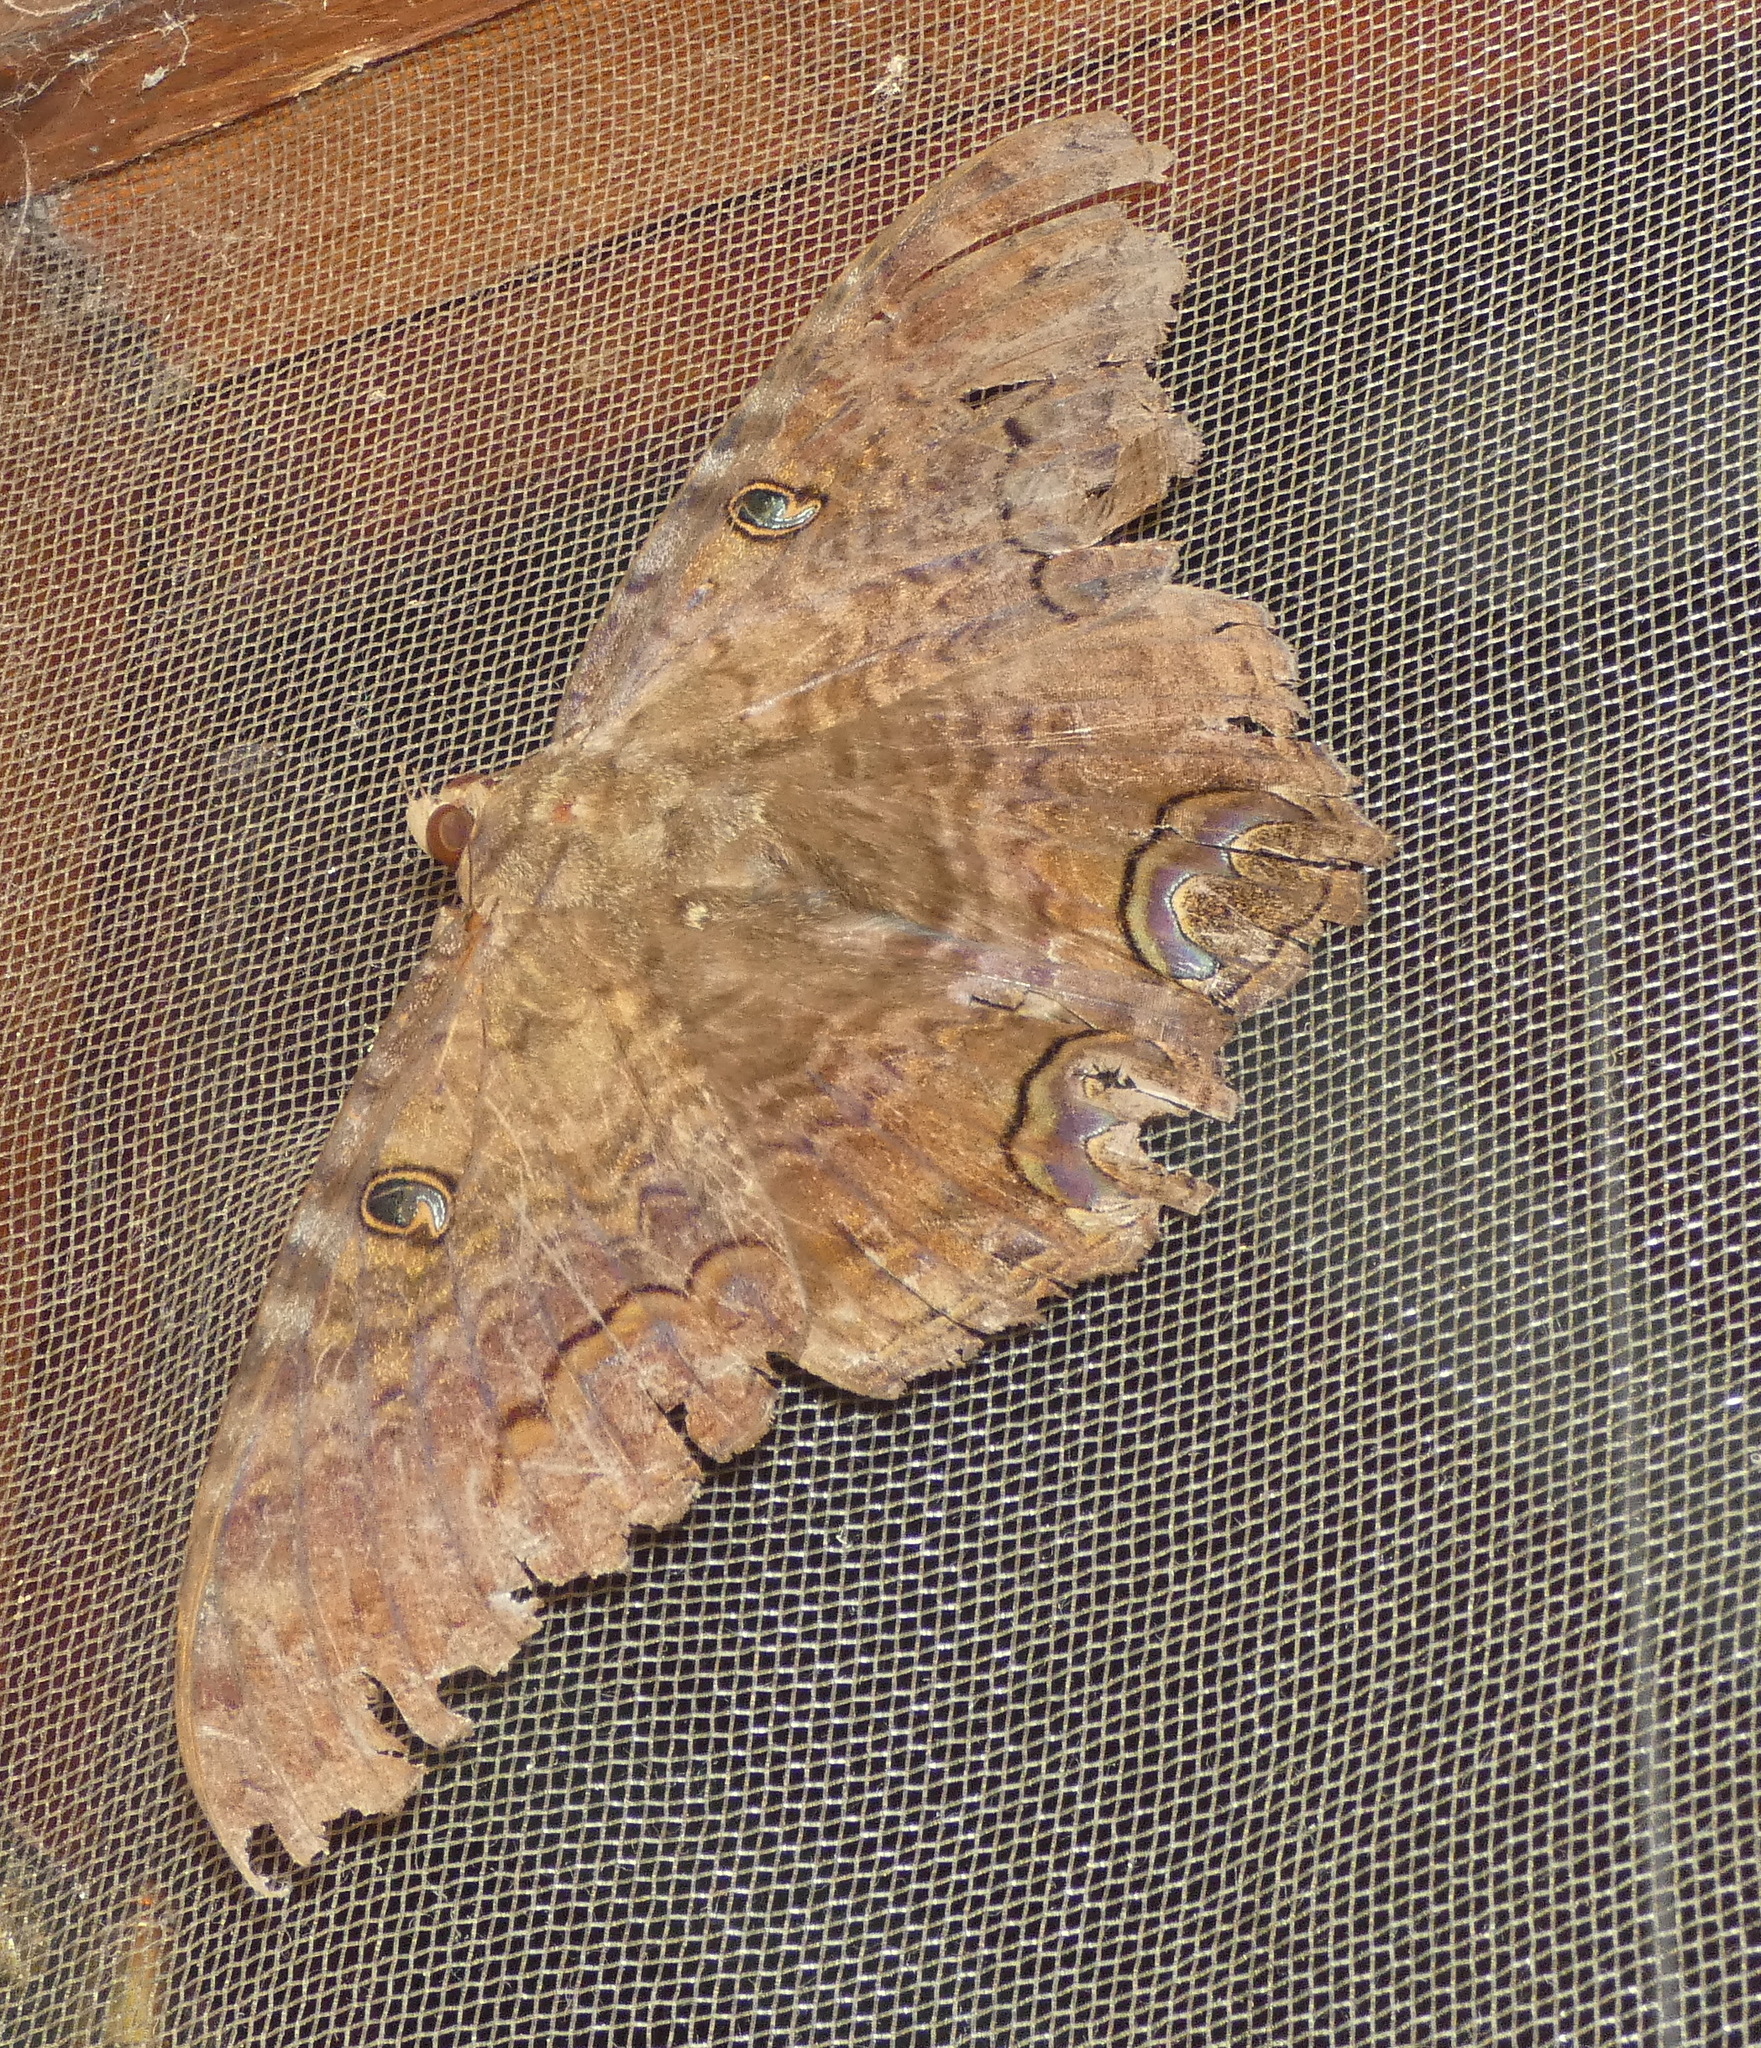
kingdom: Animalia
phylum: Arthropoda
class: Insecta
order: Lepidoptera
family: Erebidae
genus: Ascalapha
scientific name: Ascalapha odorata
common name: Black witch
